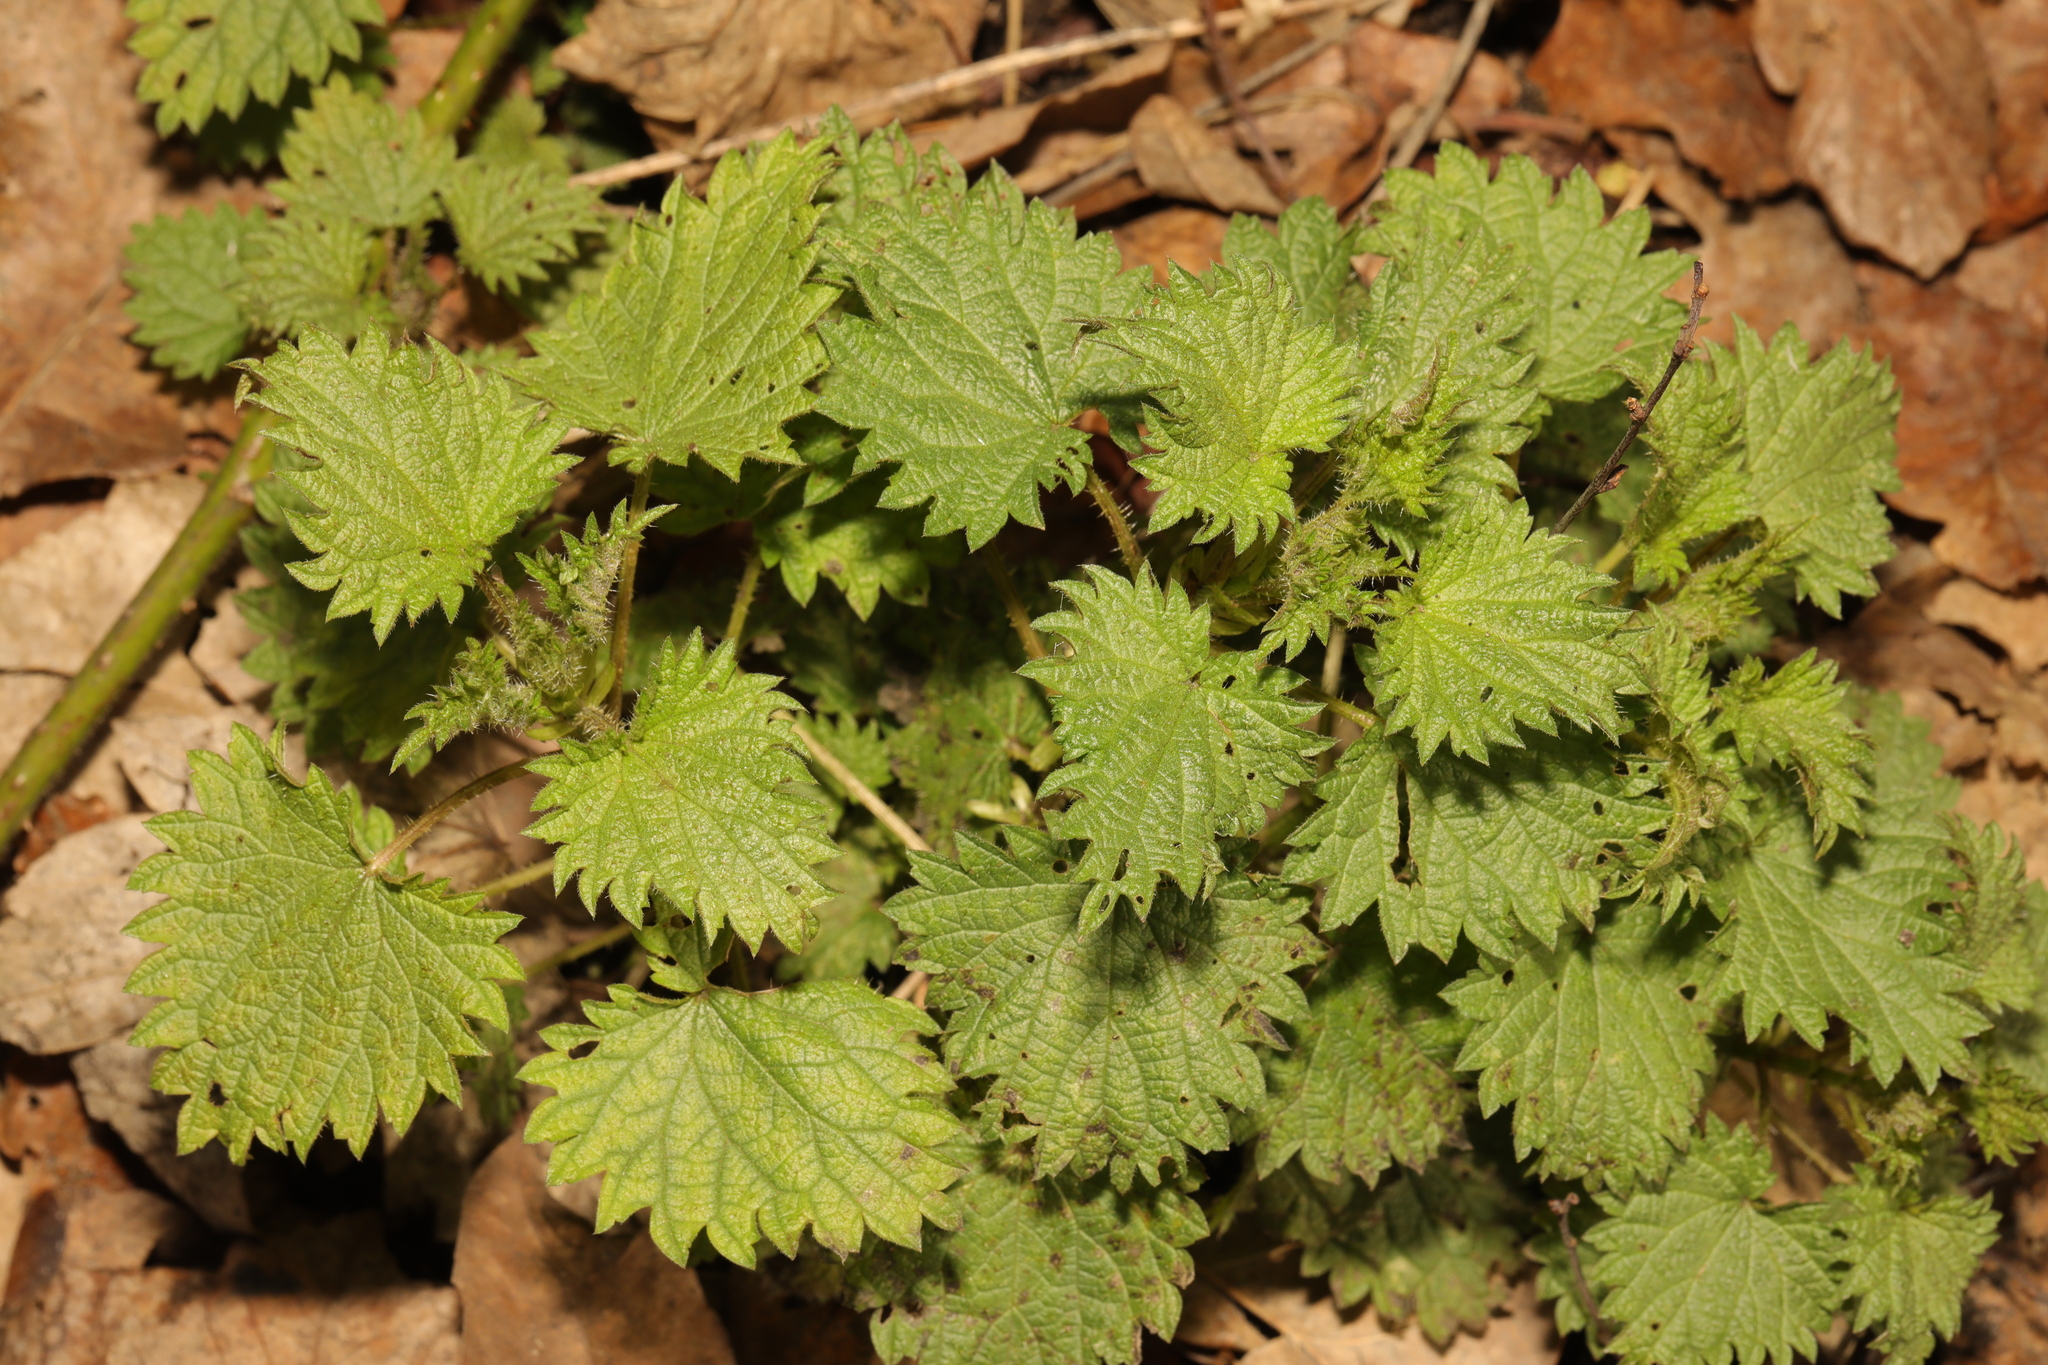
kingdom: Plantae
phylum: Tracheophyta
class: Magnoliopsida
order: Rosales
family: Urticaceae
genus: Urtica
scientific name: Urtica dioica
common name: Common nettle
